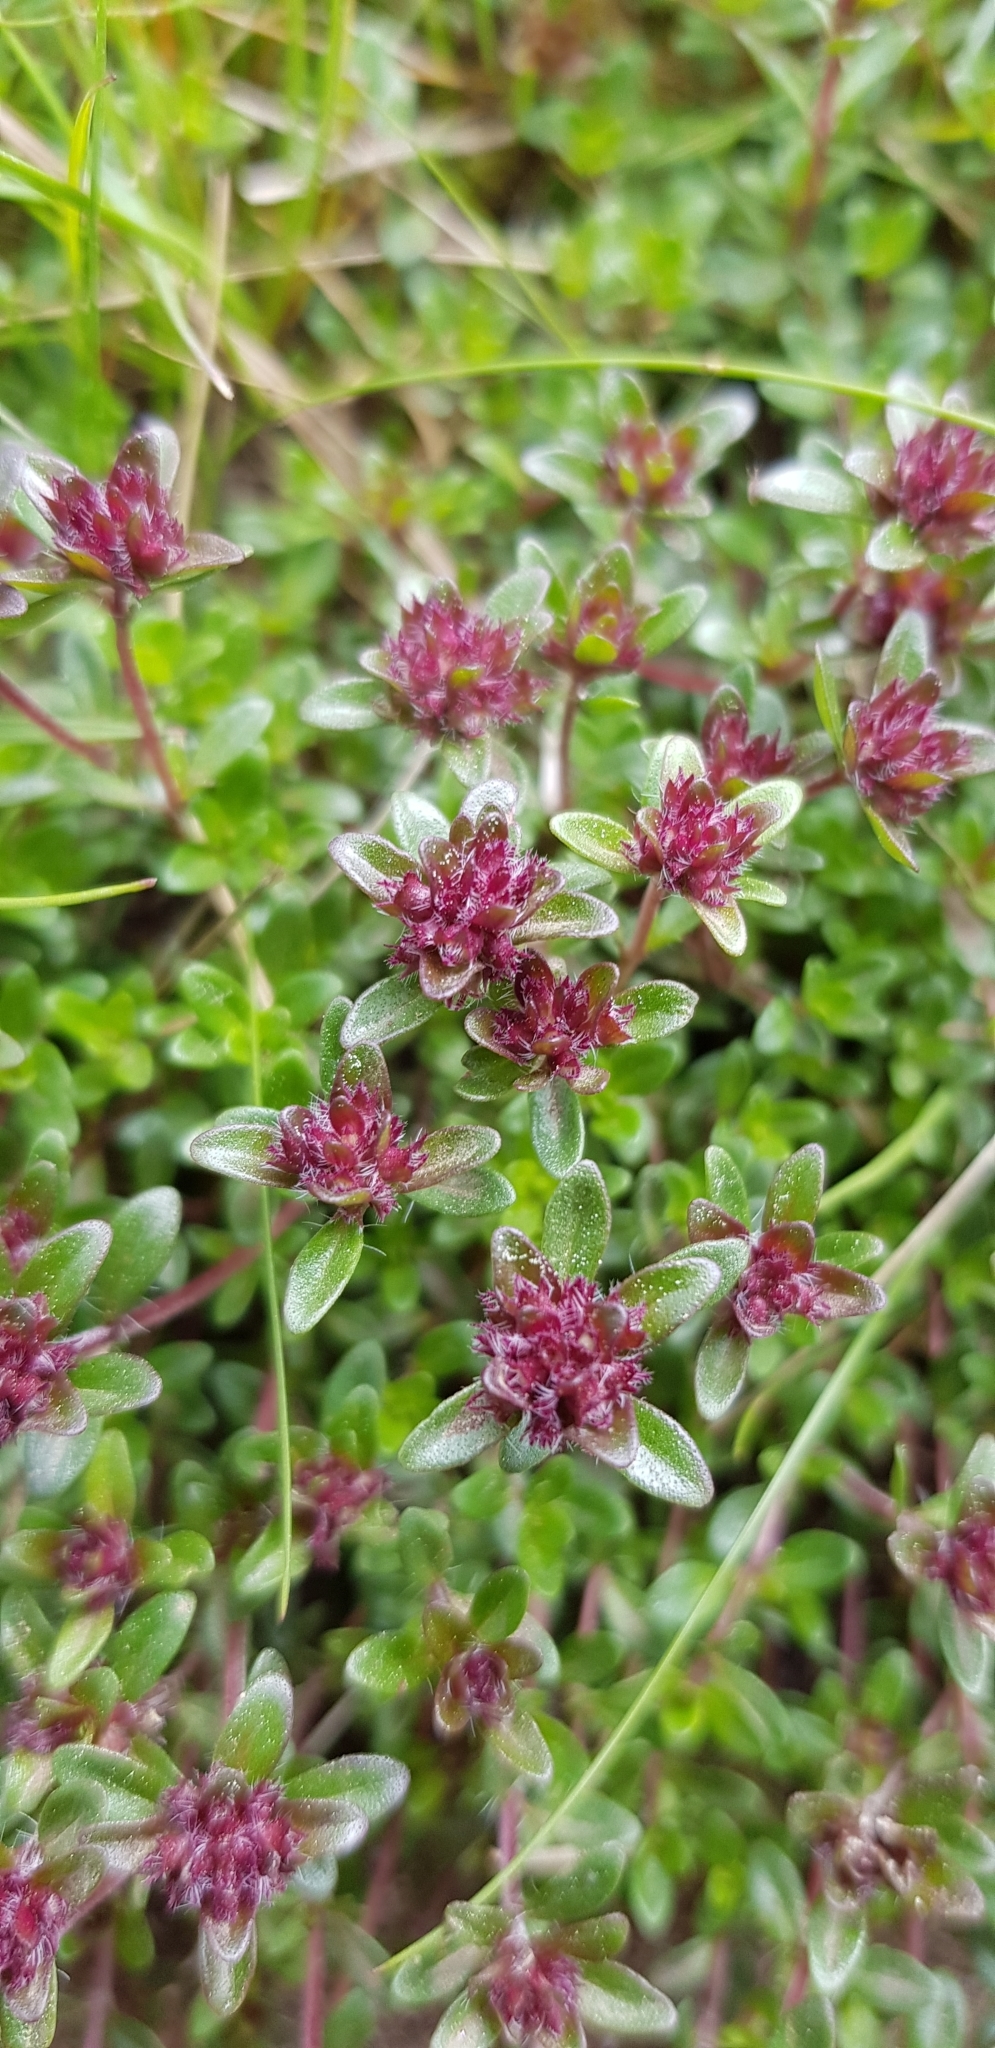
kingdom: Plantae
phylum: Tracheophyta
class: Magnoliopsida
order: Lamiales
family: Lamiaceae
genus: Thymus
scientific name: Thymus praecox
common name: Wild thyme
